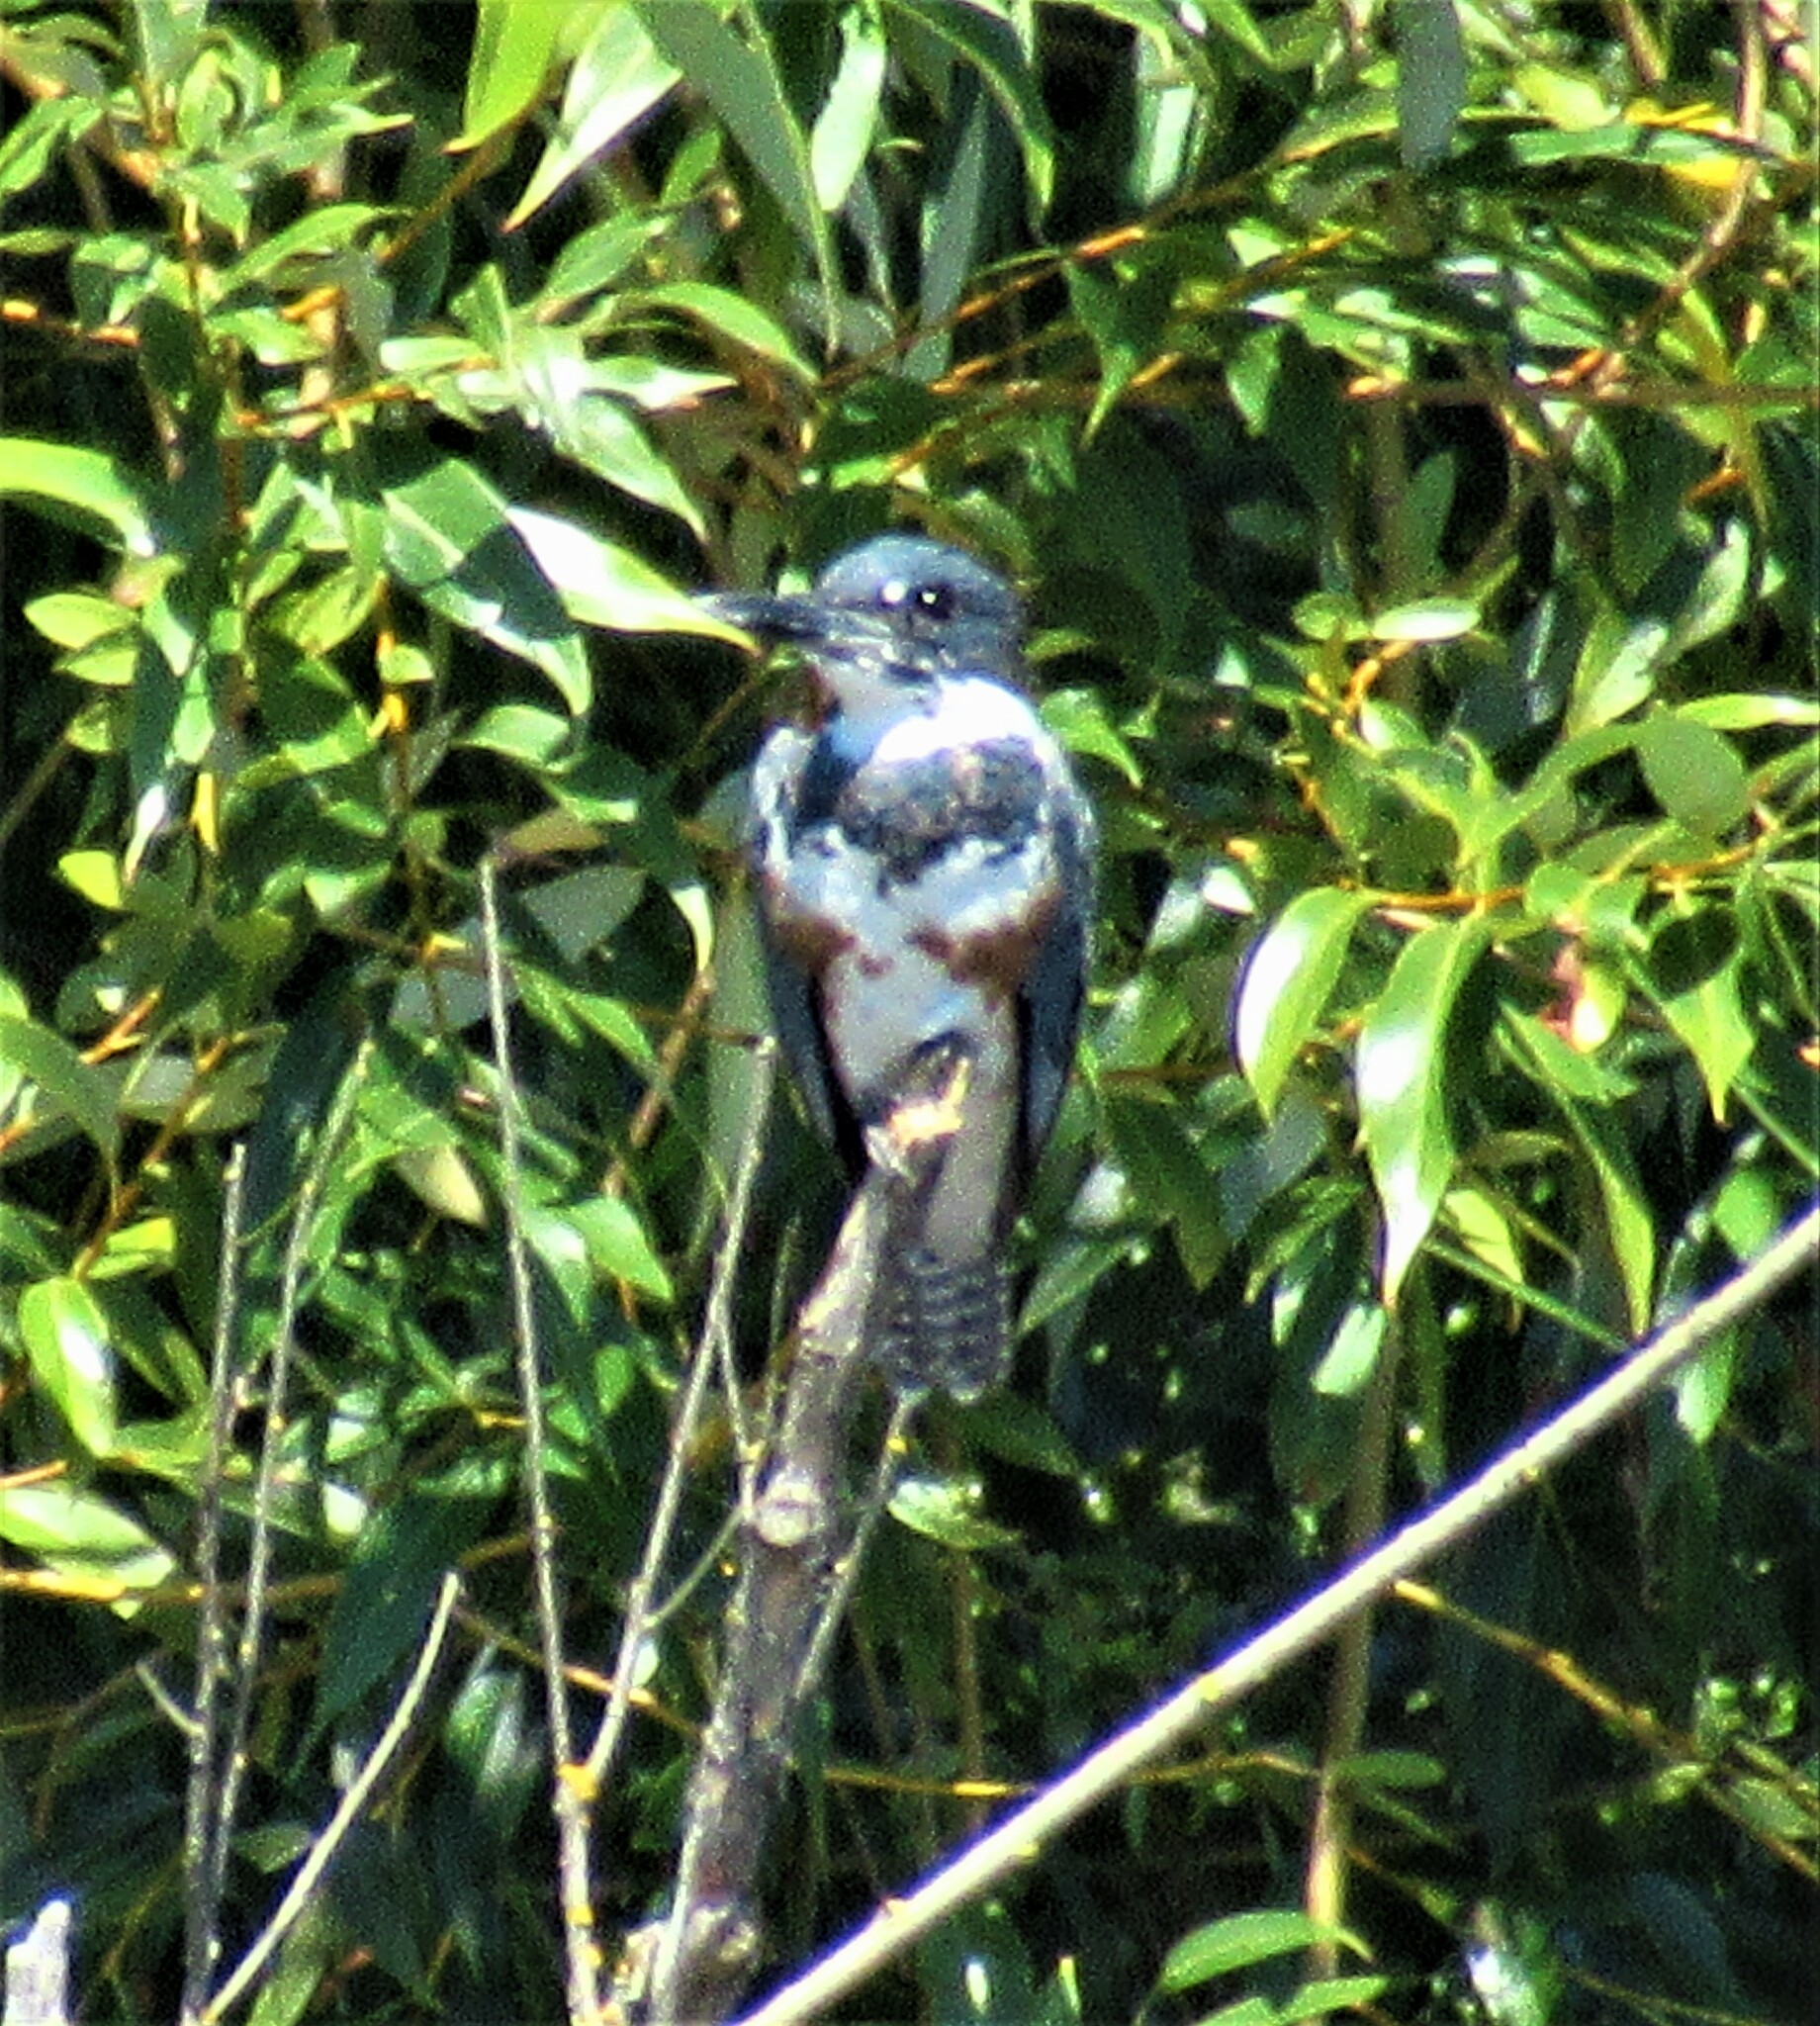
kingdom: Animalia
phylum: Chordata
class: Aves
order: Coraciiformes
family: Alcedinidae
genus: Megaceryle
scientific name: Megaceryle alcyon
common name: Belted kingfisher
